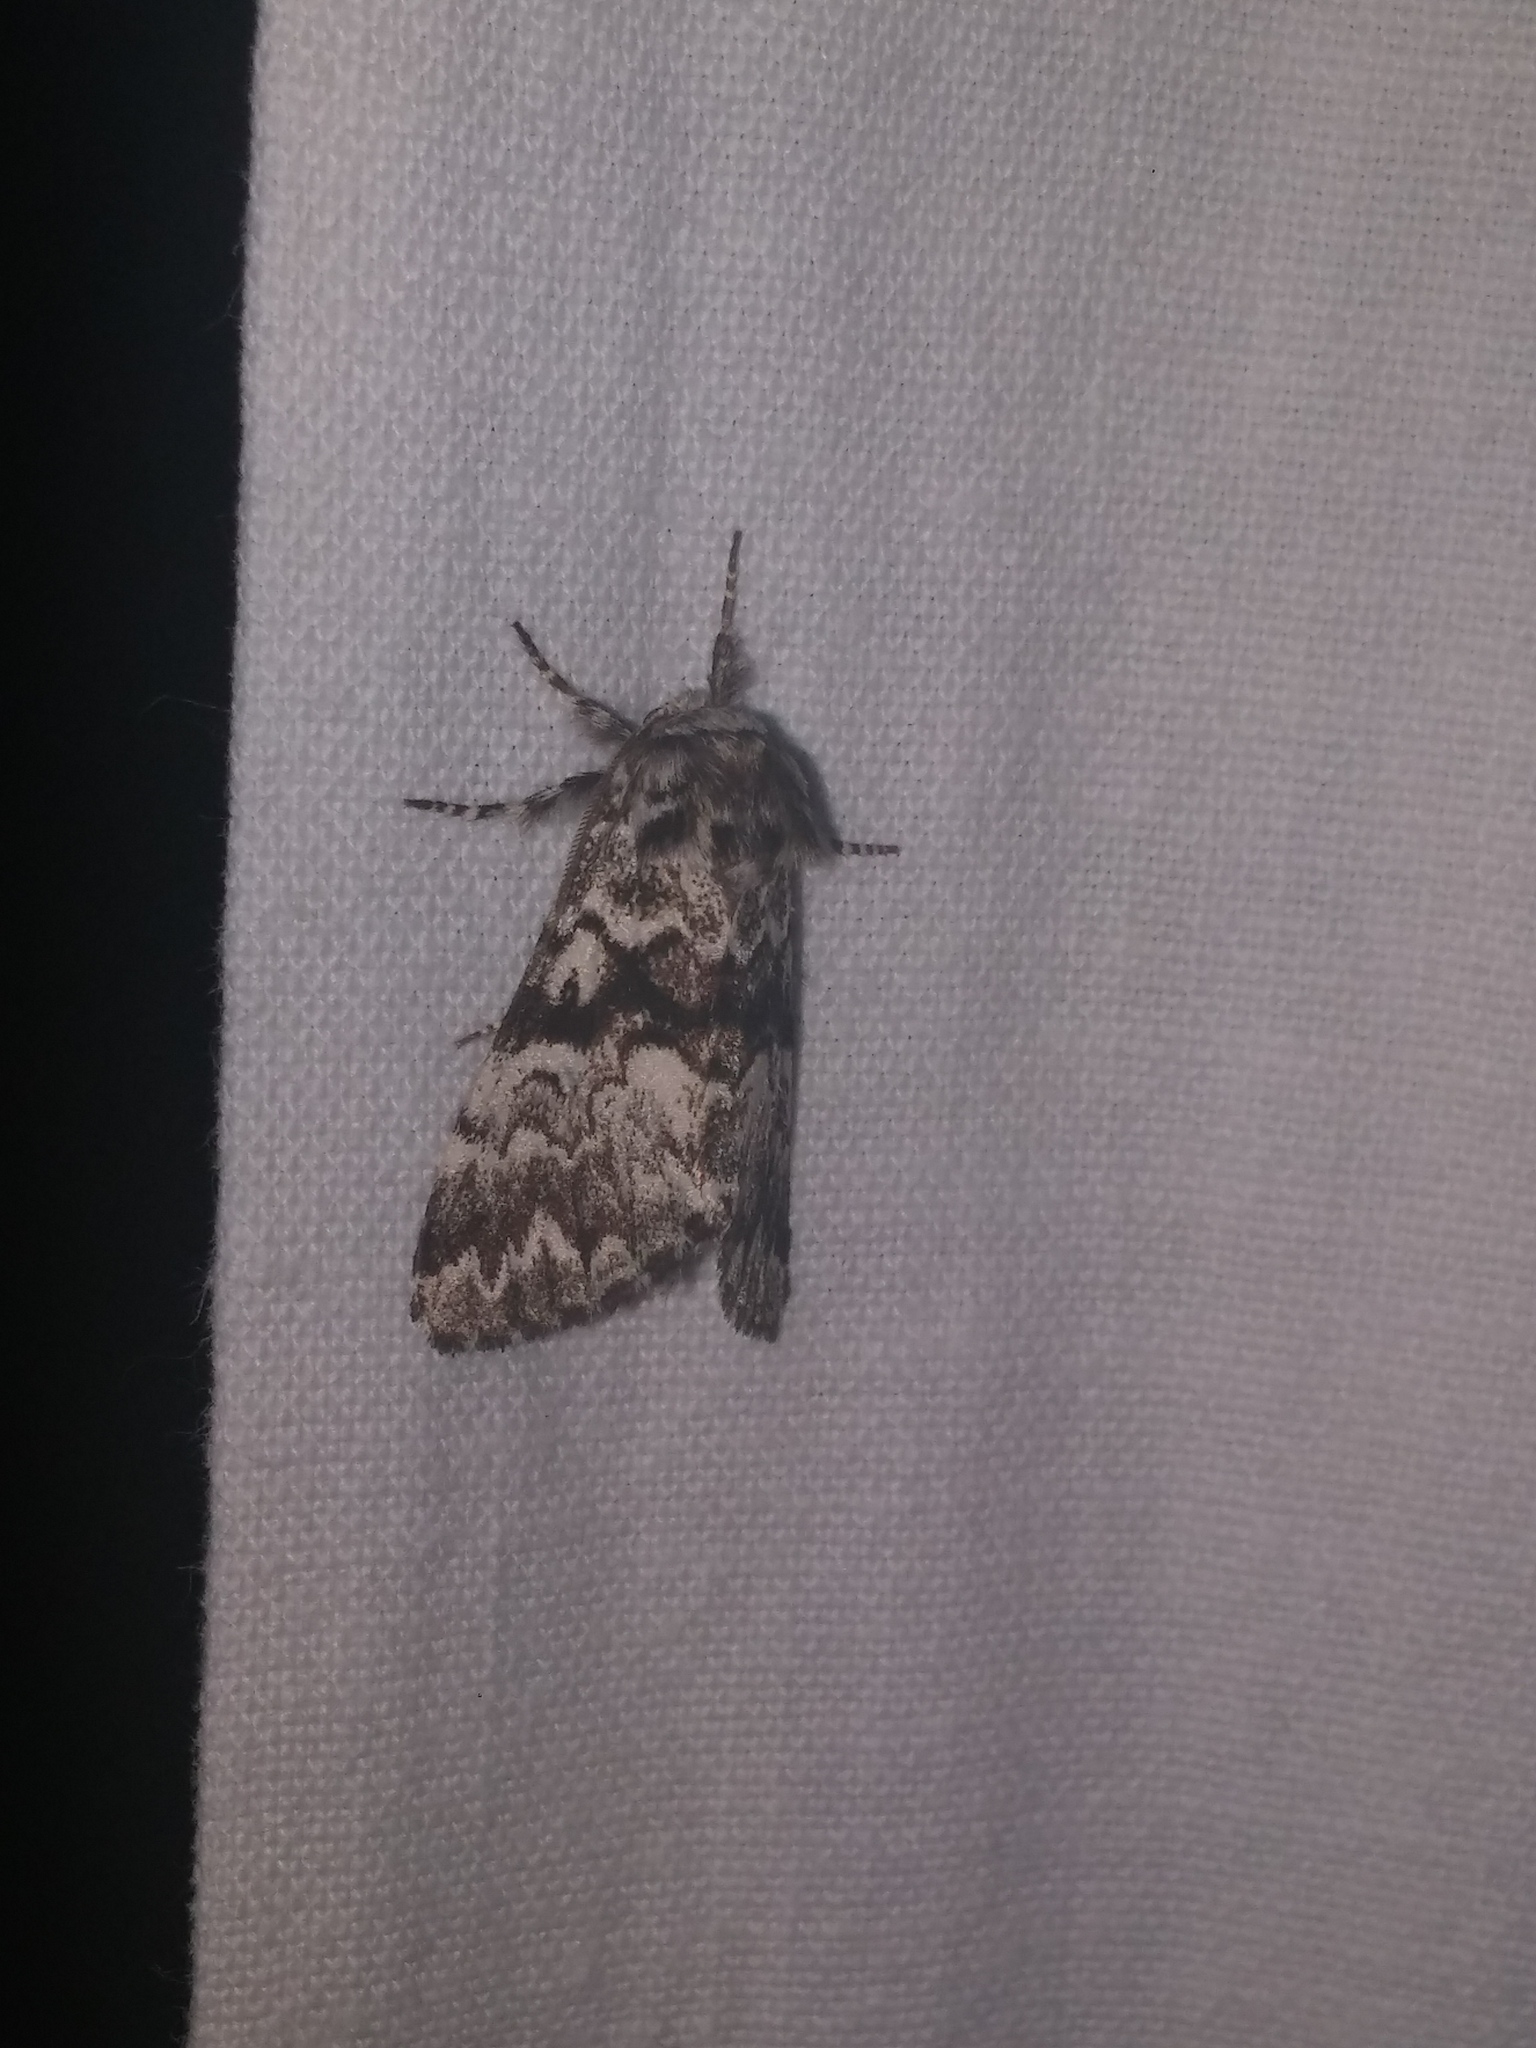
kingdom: Animalia
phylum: Arthropoda
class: Insecta
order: Lepidoptera
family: Noctuidae
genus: Panthea
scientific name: Panthea acronyctoides
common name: Black zigzag moth
